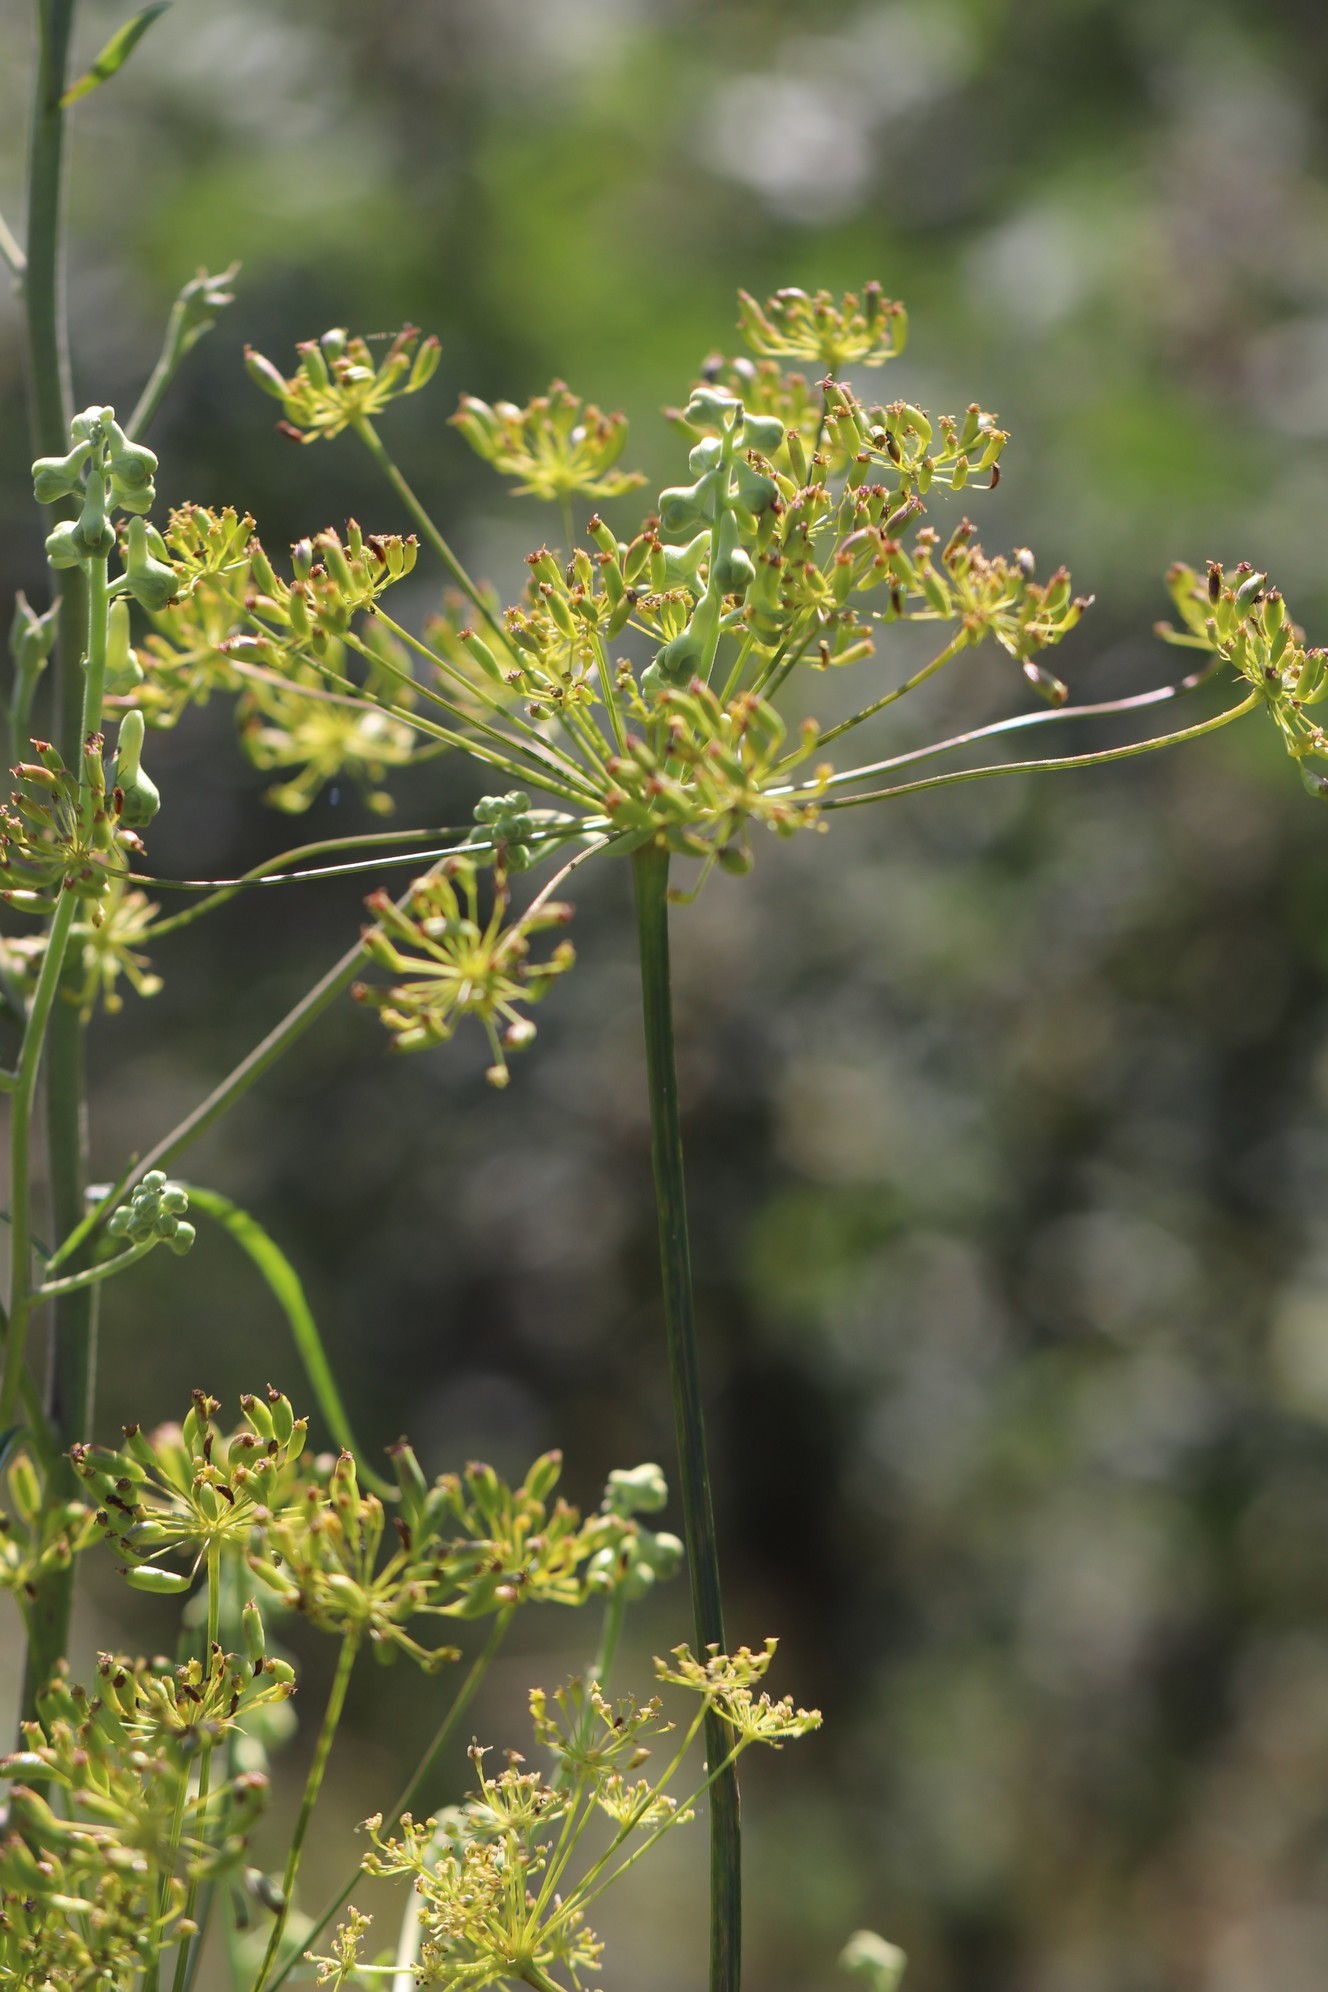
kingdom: Plantae
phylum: Tracheophyta
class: Magnoliopsida
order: Apiales
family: Apiaceae
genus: Peucedanum
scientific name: Peucedanum morisonii
